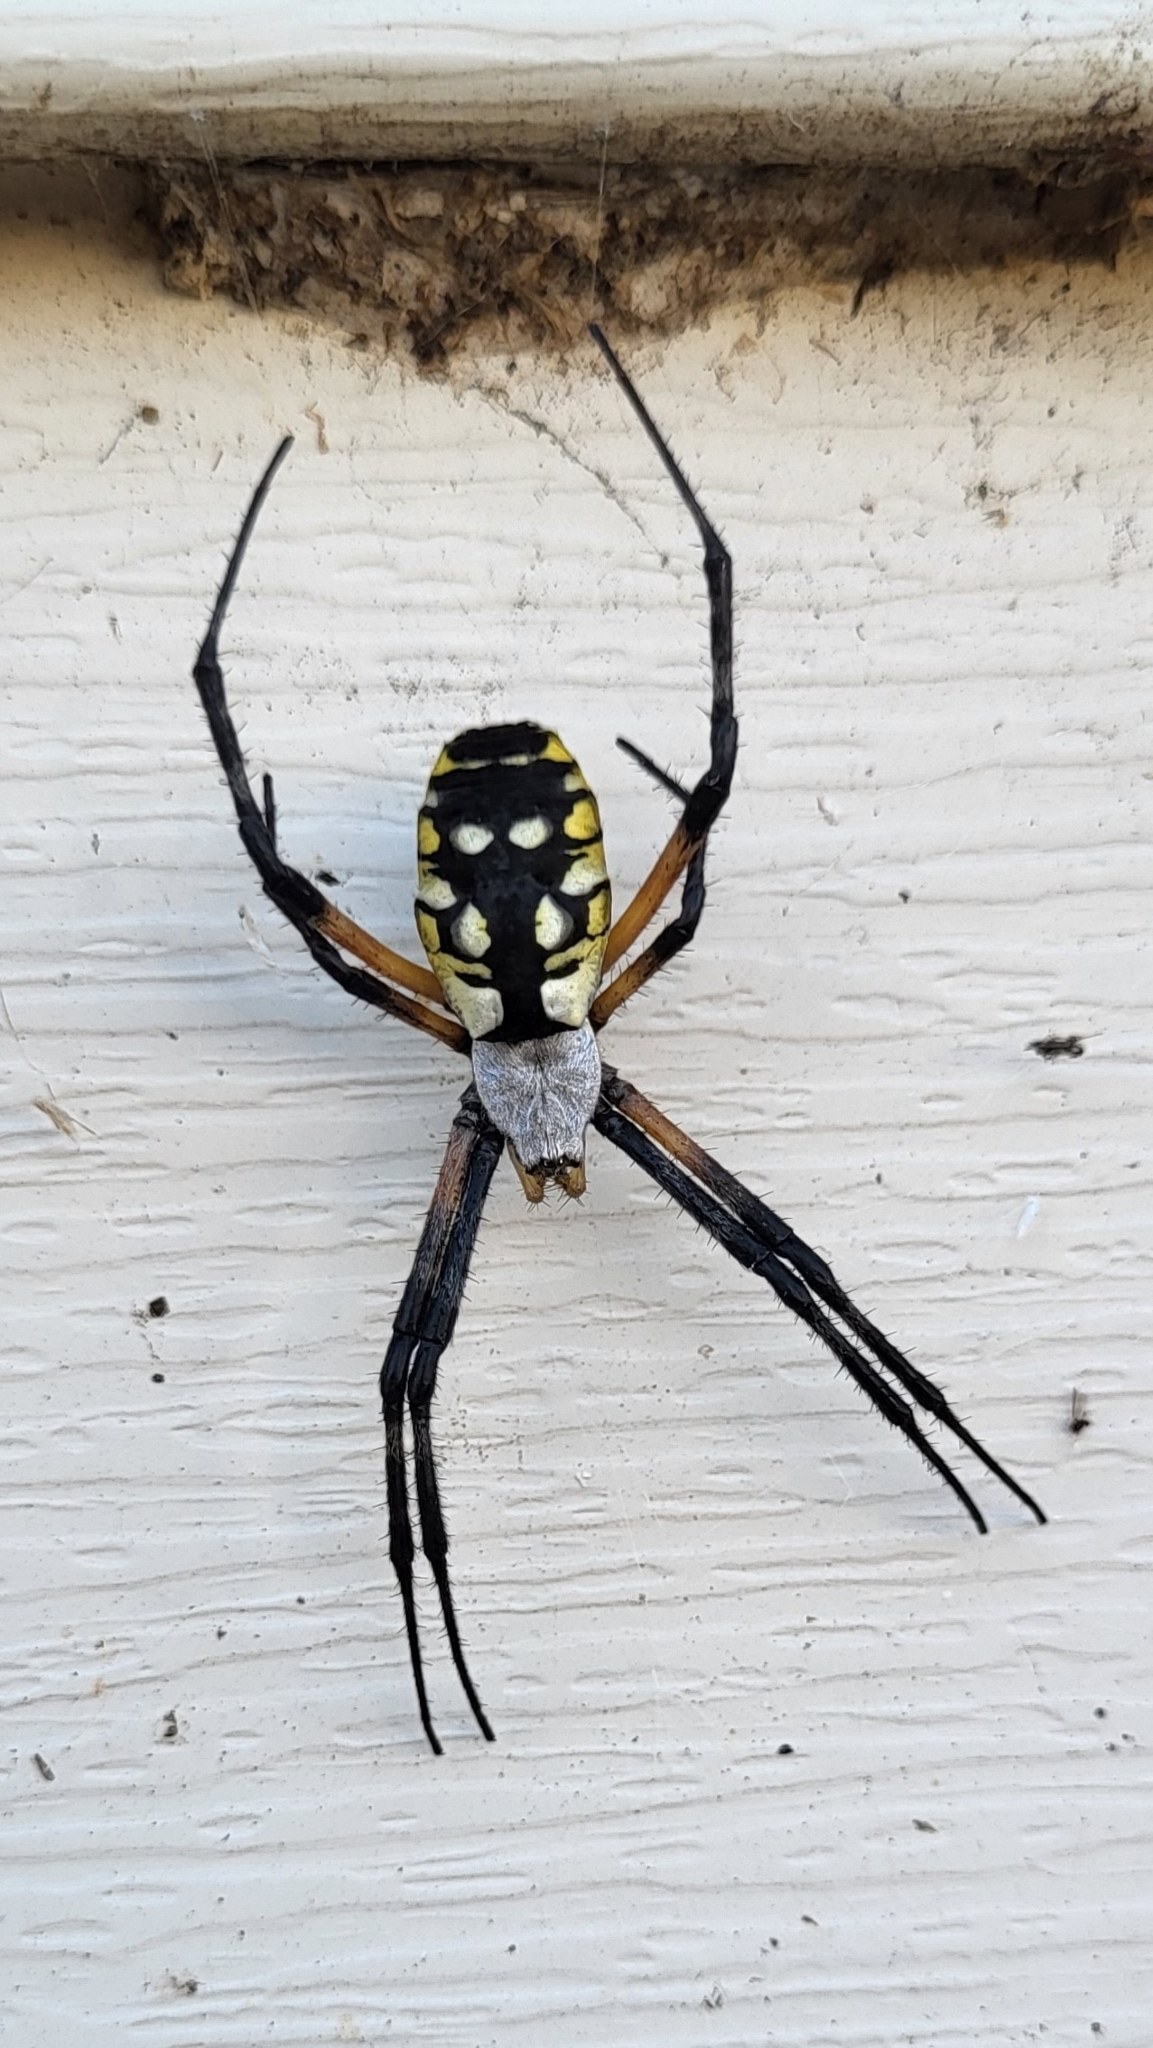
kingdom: Animalia
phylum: Arthropoda
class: Arachnida
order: Araneae
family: Araneidae
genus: Argiope
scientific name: Argiope aurantia
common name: Orb weavers
